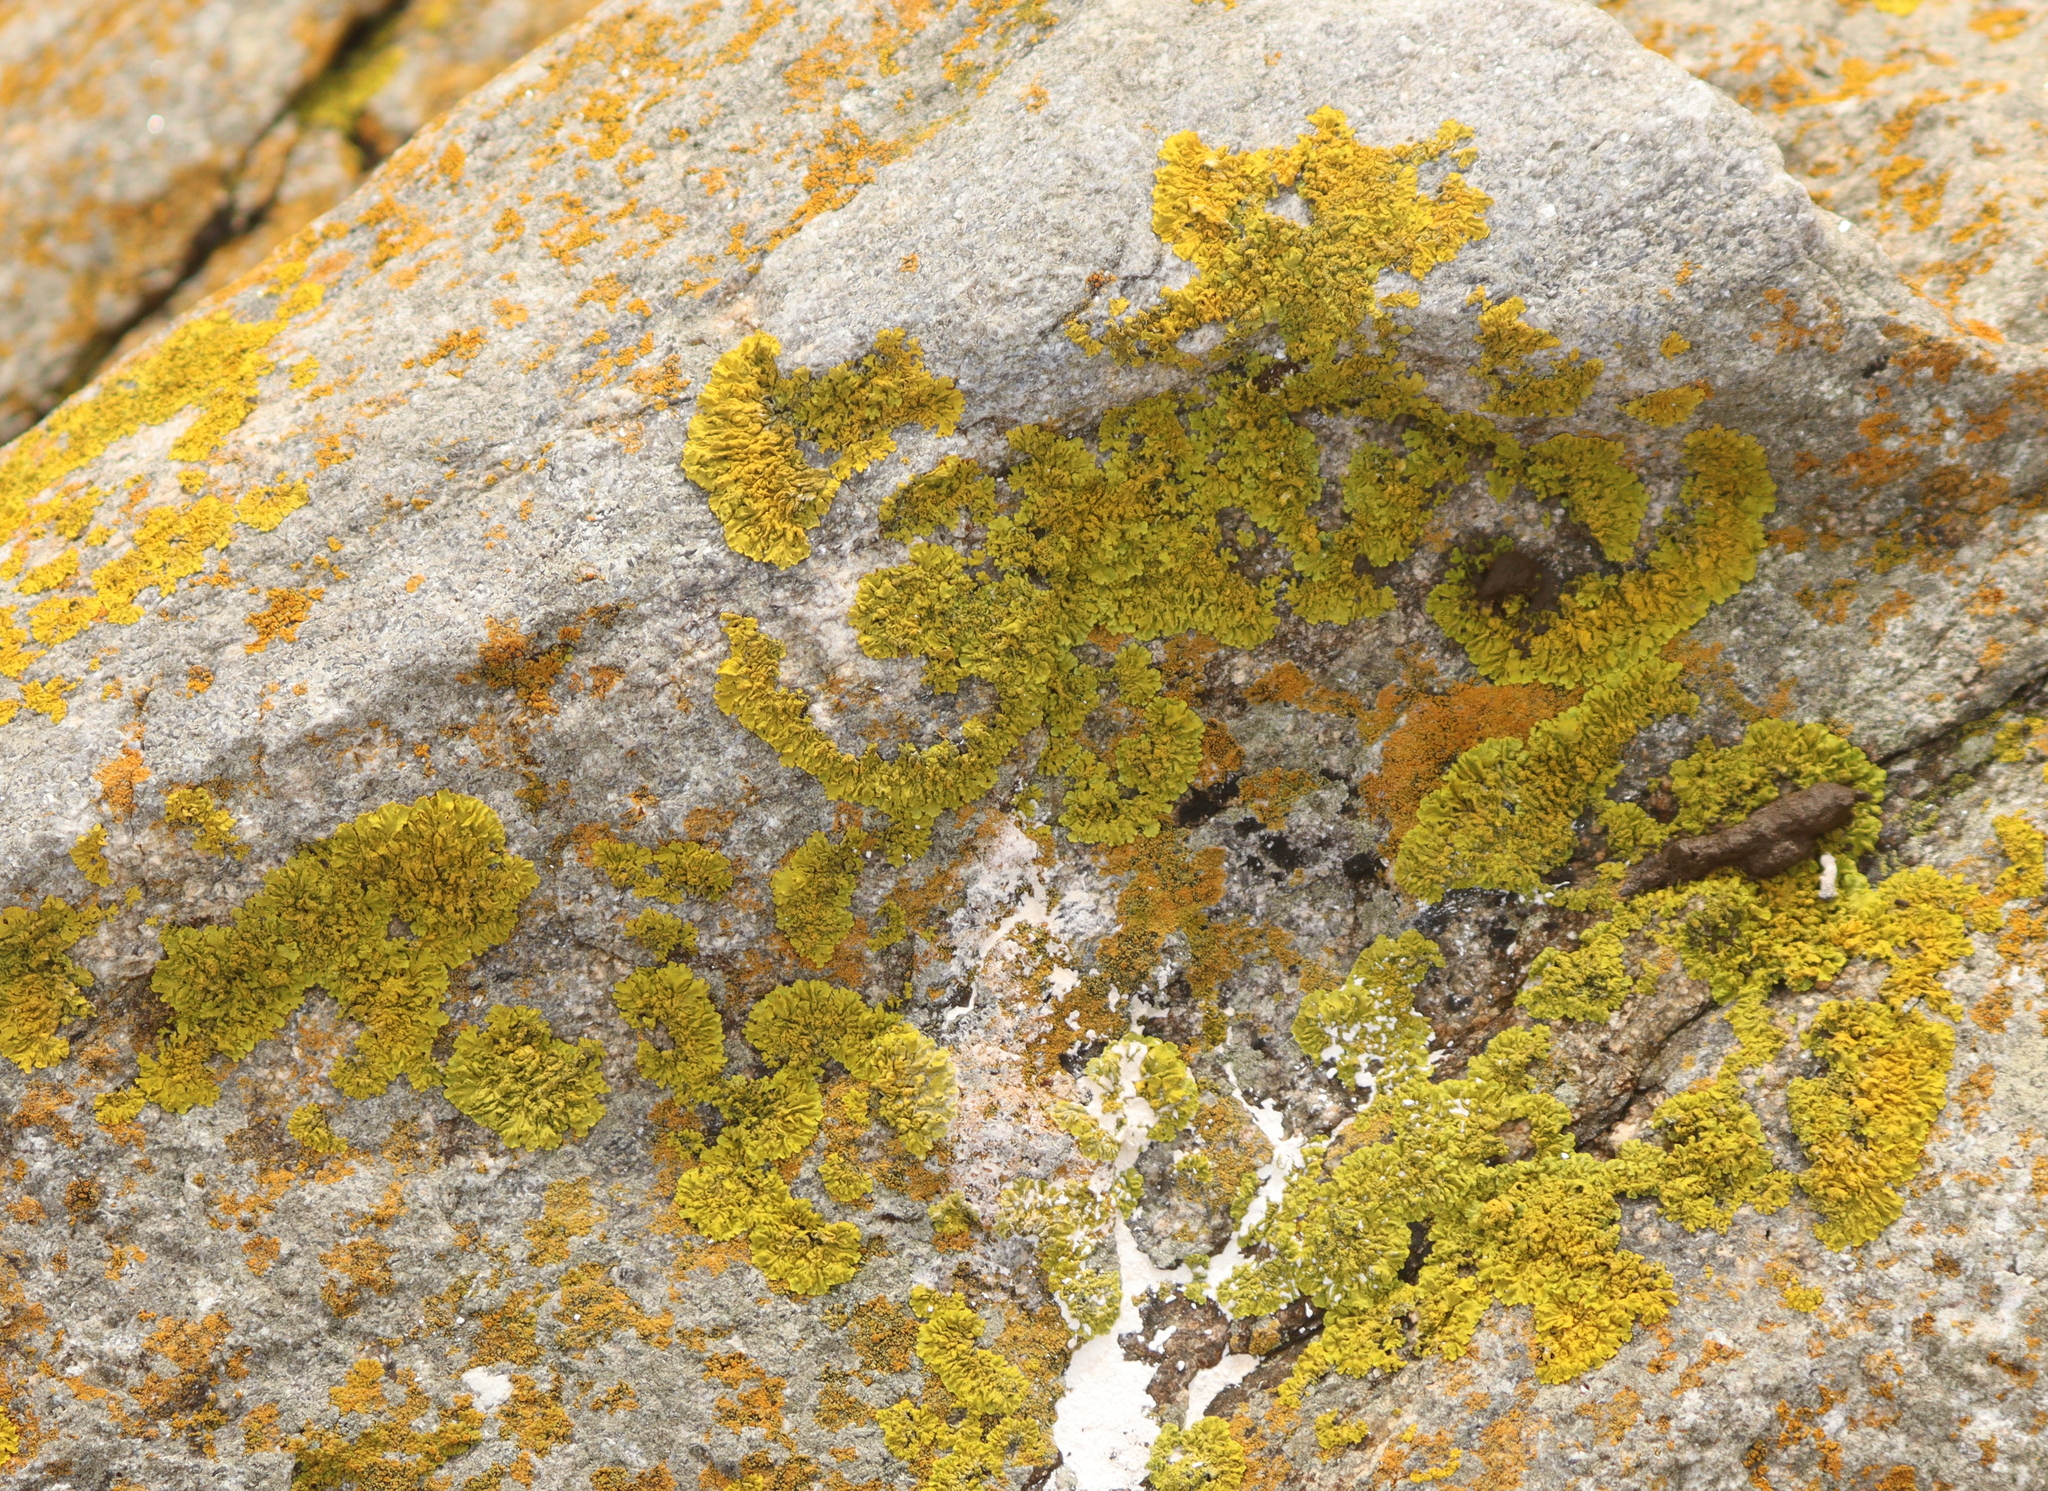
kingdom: Fungi
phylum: Ascomycota
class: Lecanoromycetes
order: Teloschistales
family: Teloschistaceae
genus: Xanthoria
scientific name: Xanthoria calcicola
